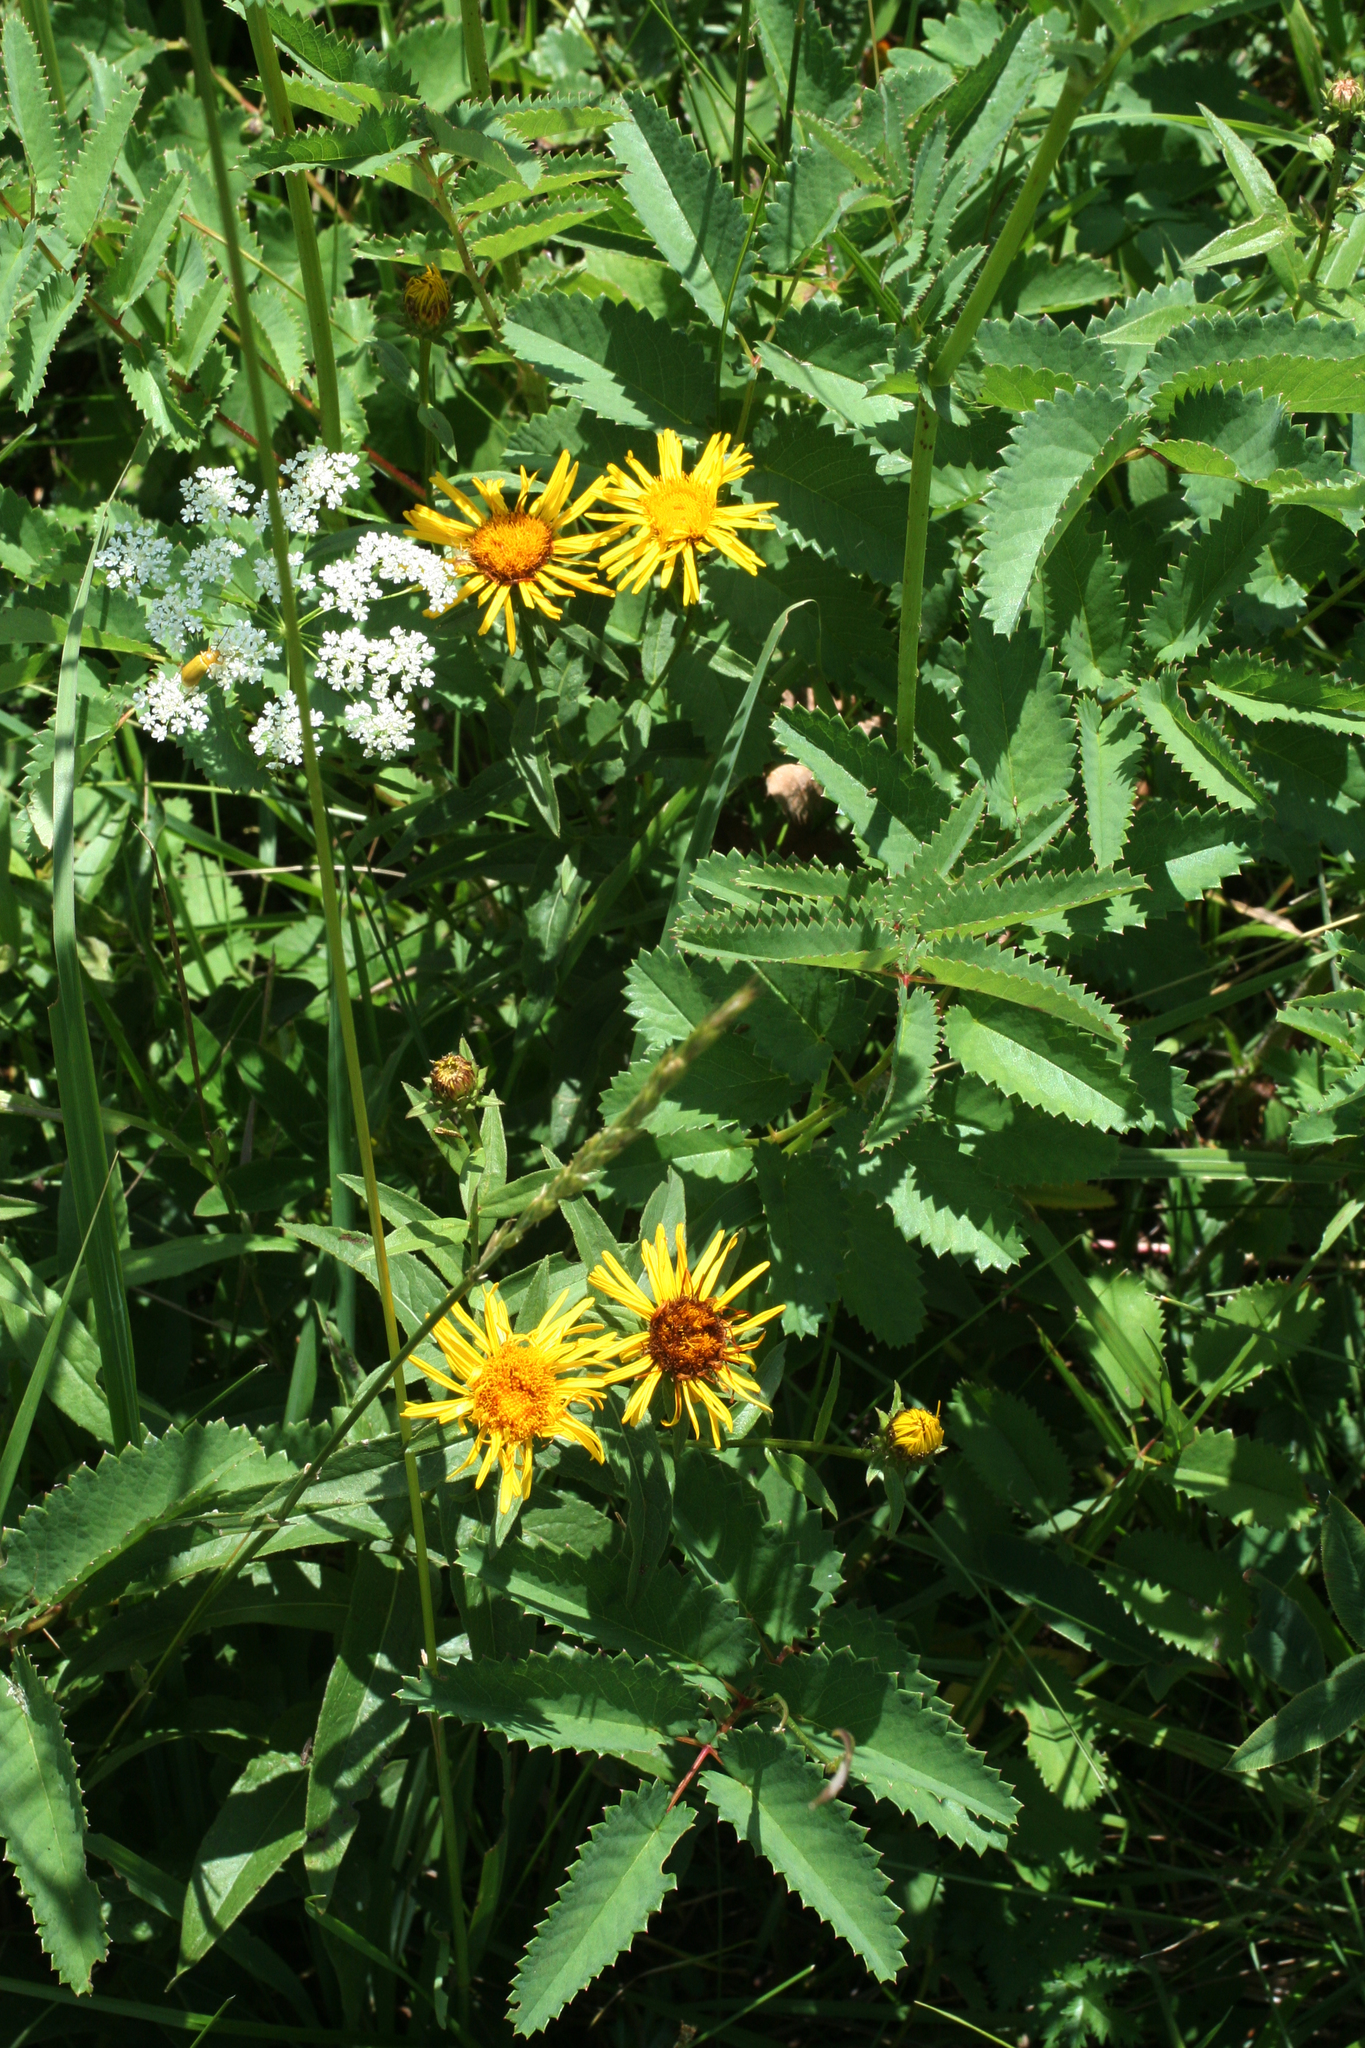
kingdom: Plantae
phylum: Tracheophyta
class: Magnoliopsida
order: Asterales
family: Asteraceae
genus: Pentanema
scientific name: Pentanema salicinum
